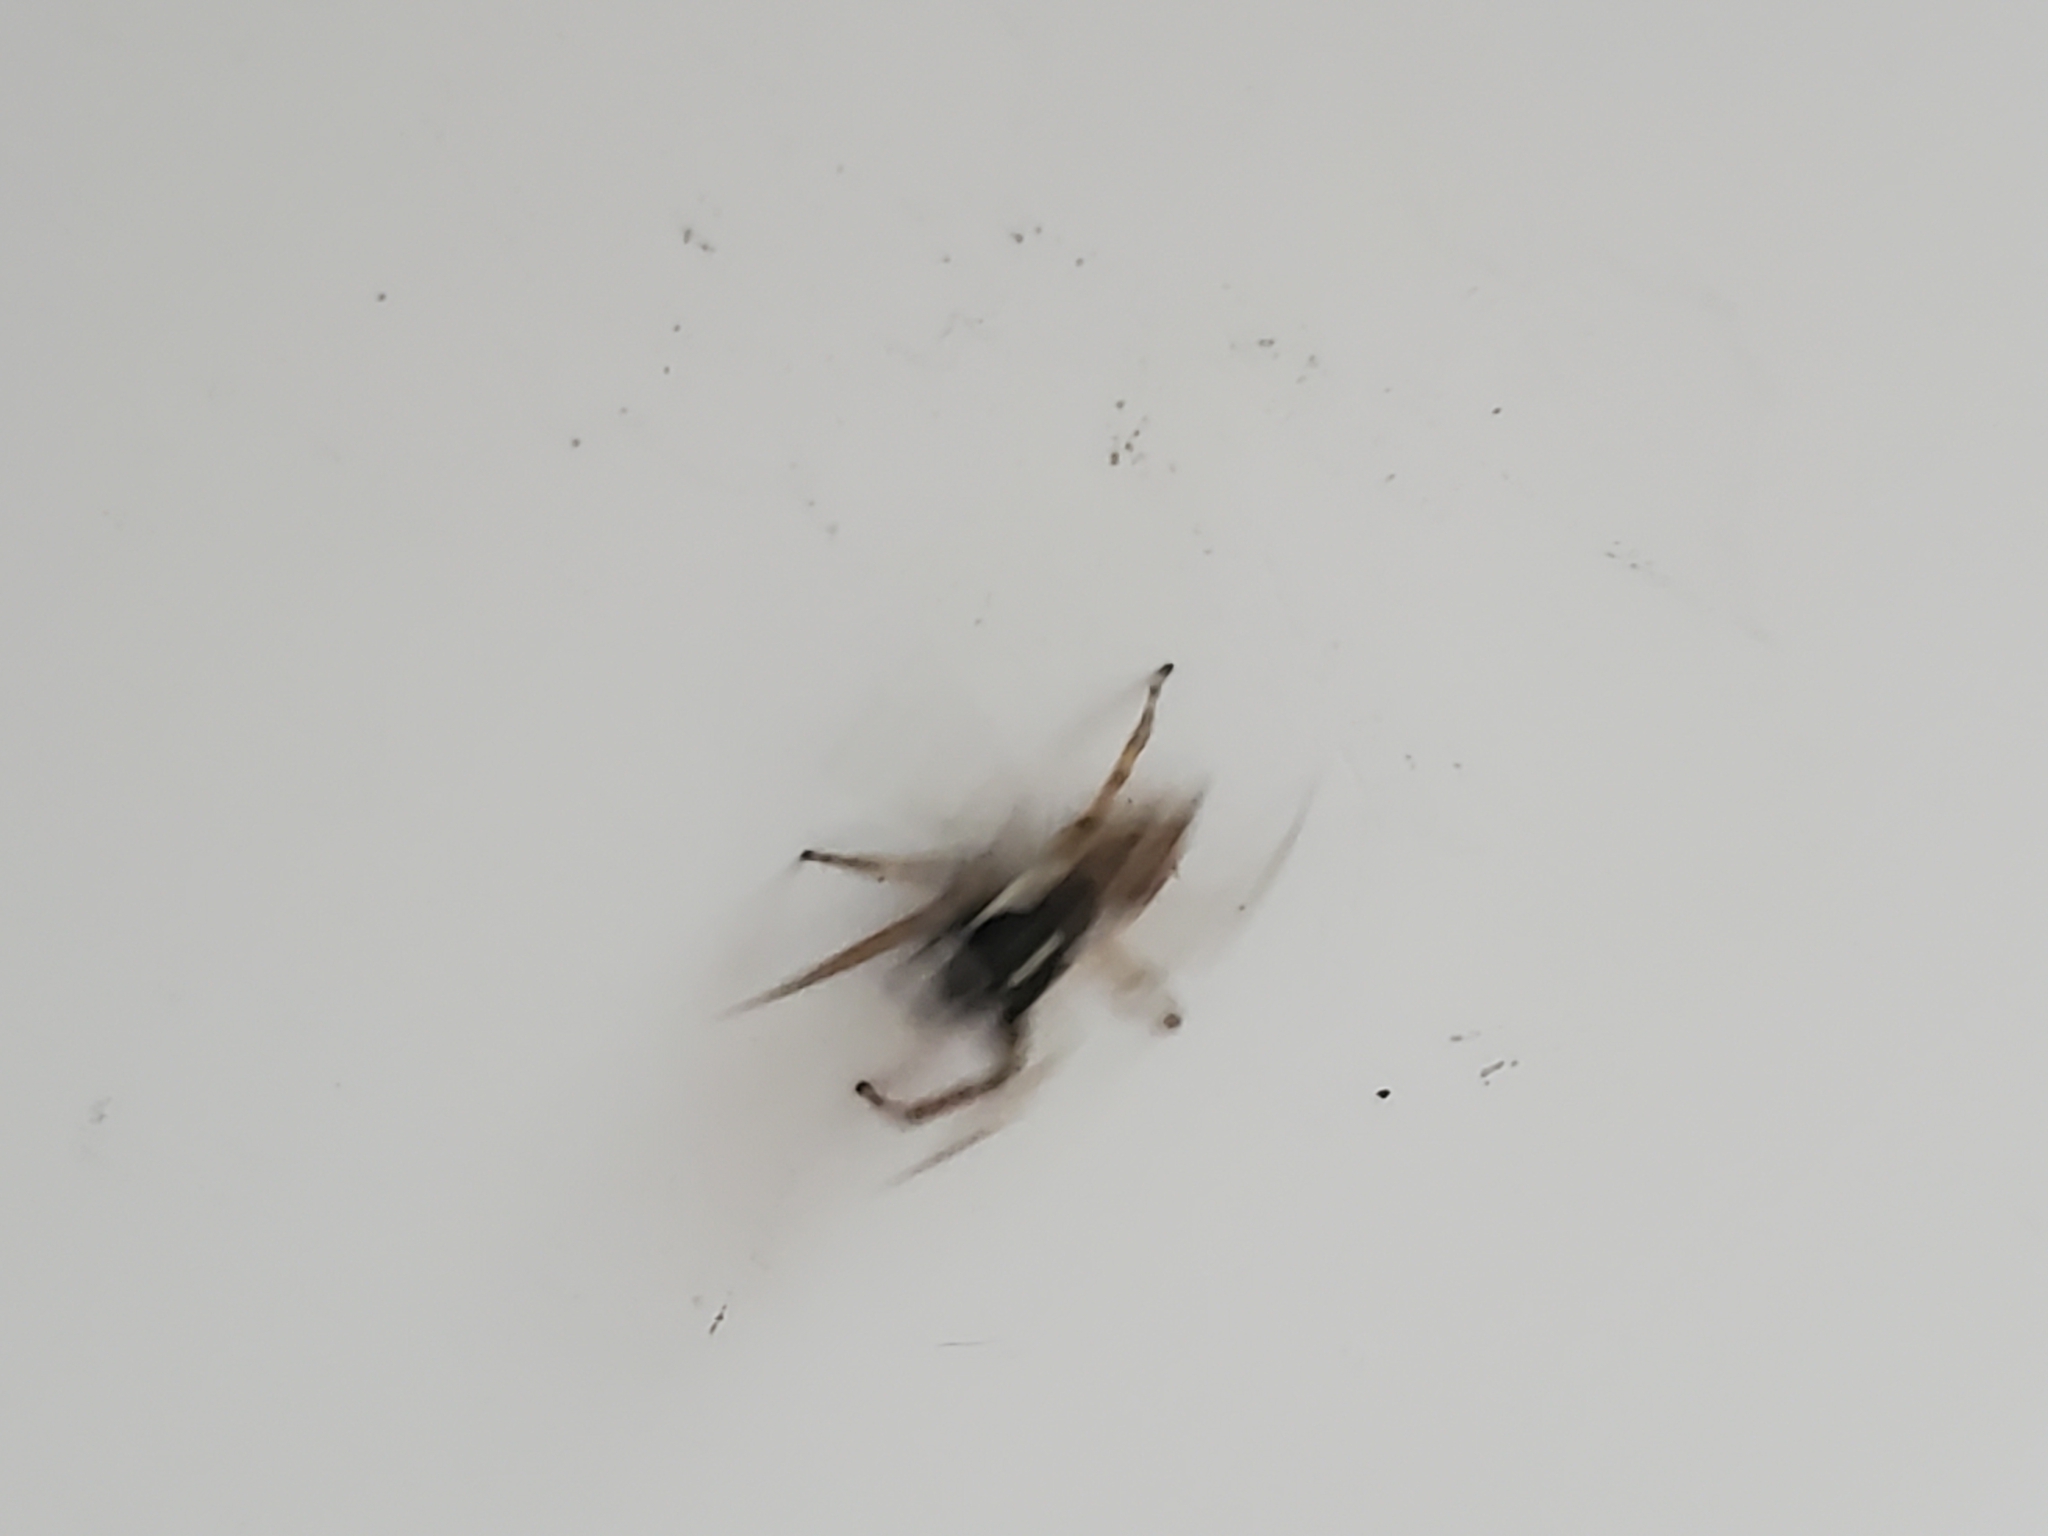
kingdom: Animalia
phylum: Arthropoda
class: Arachnida
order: Araneae
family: Salticidae
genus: Menemerus
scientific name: Menemerus semilimbatus
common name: Jumping spider
